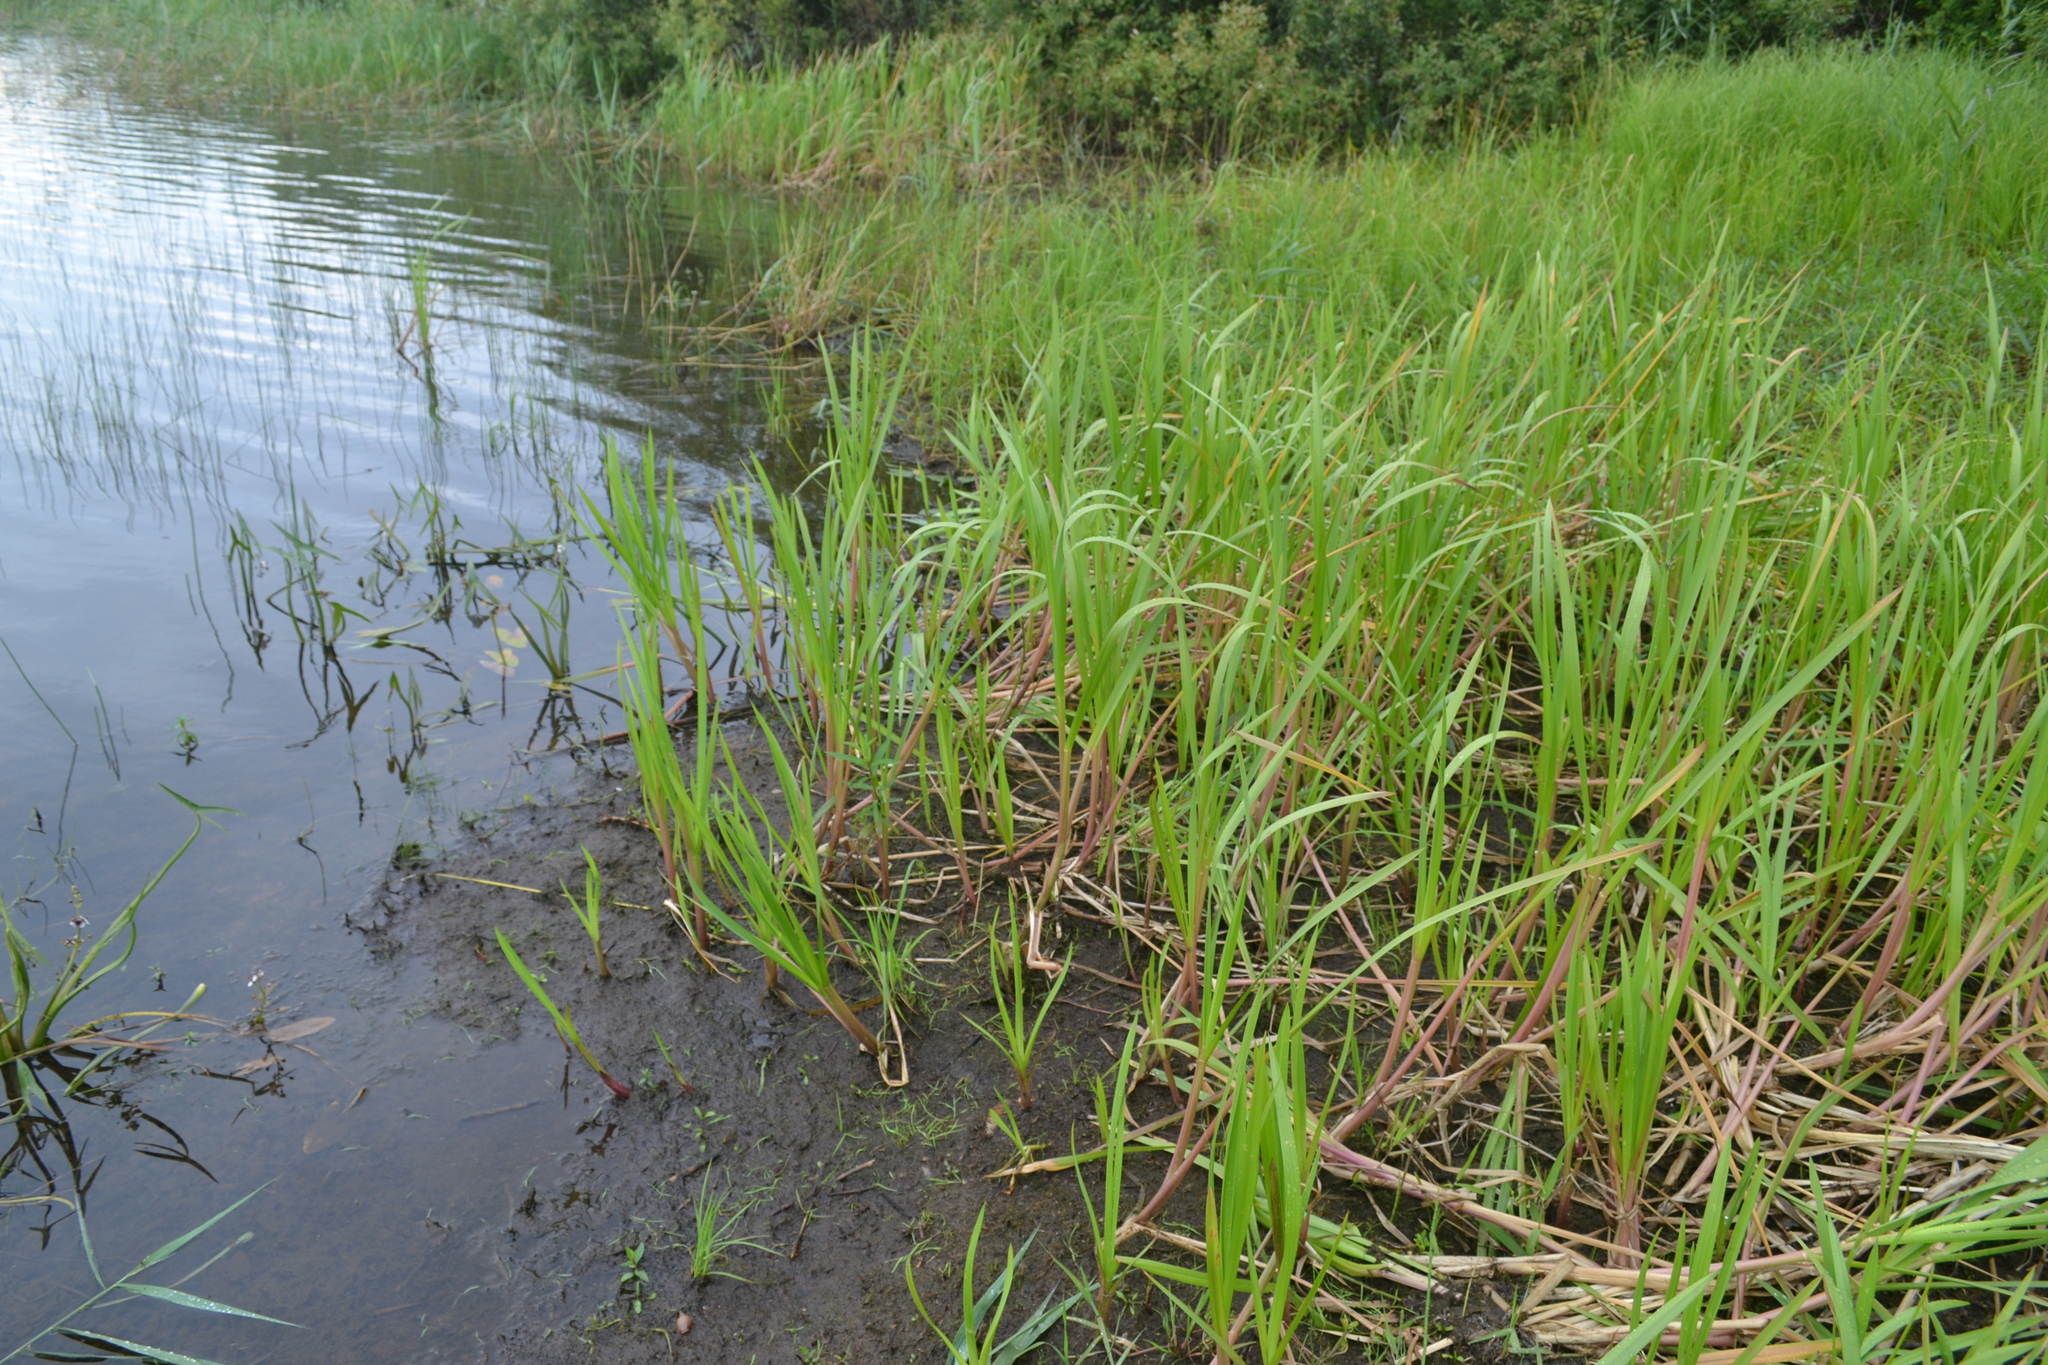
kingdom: Plantae
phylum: Tracheophyta
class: Liliopsida
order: Poales
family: Poaceae
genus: Glyceria
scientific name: Glyceria maxima
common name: Reed mannagrass
